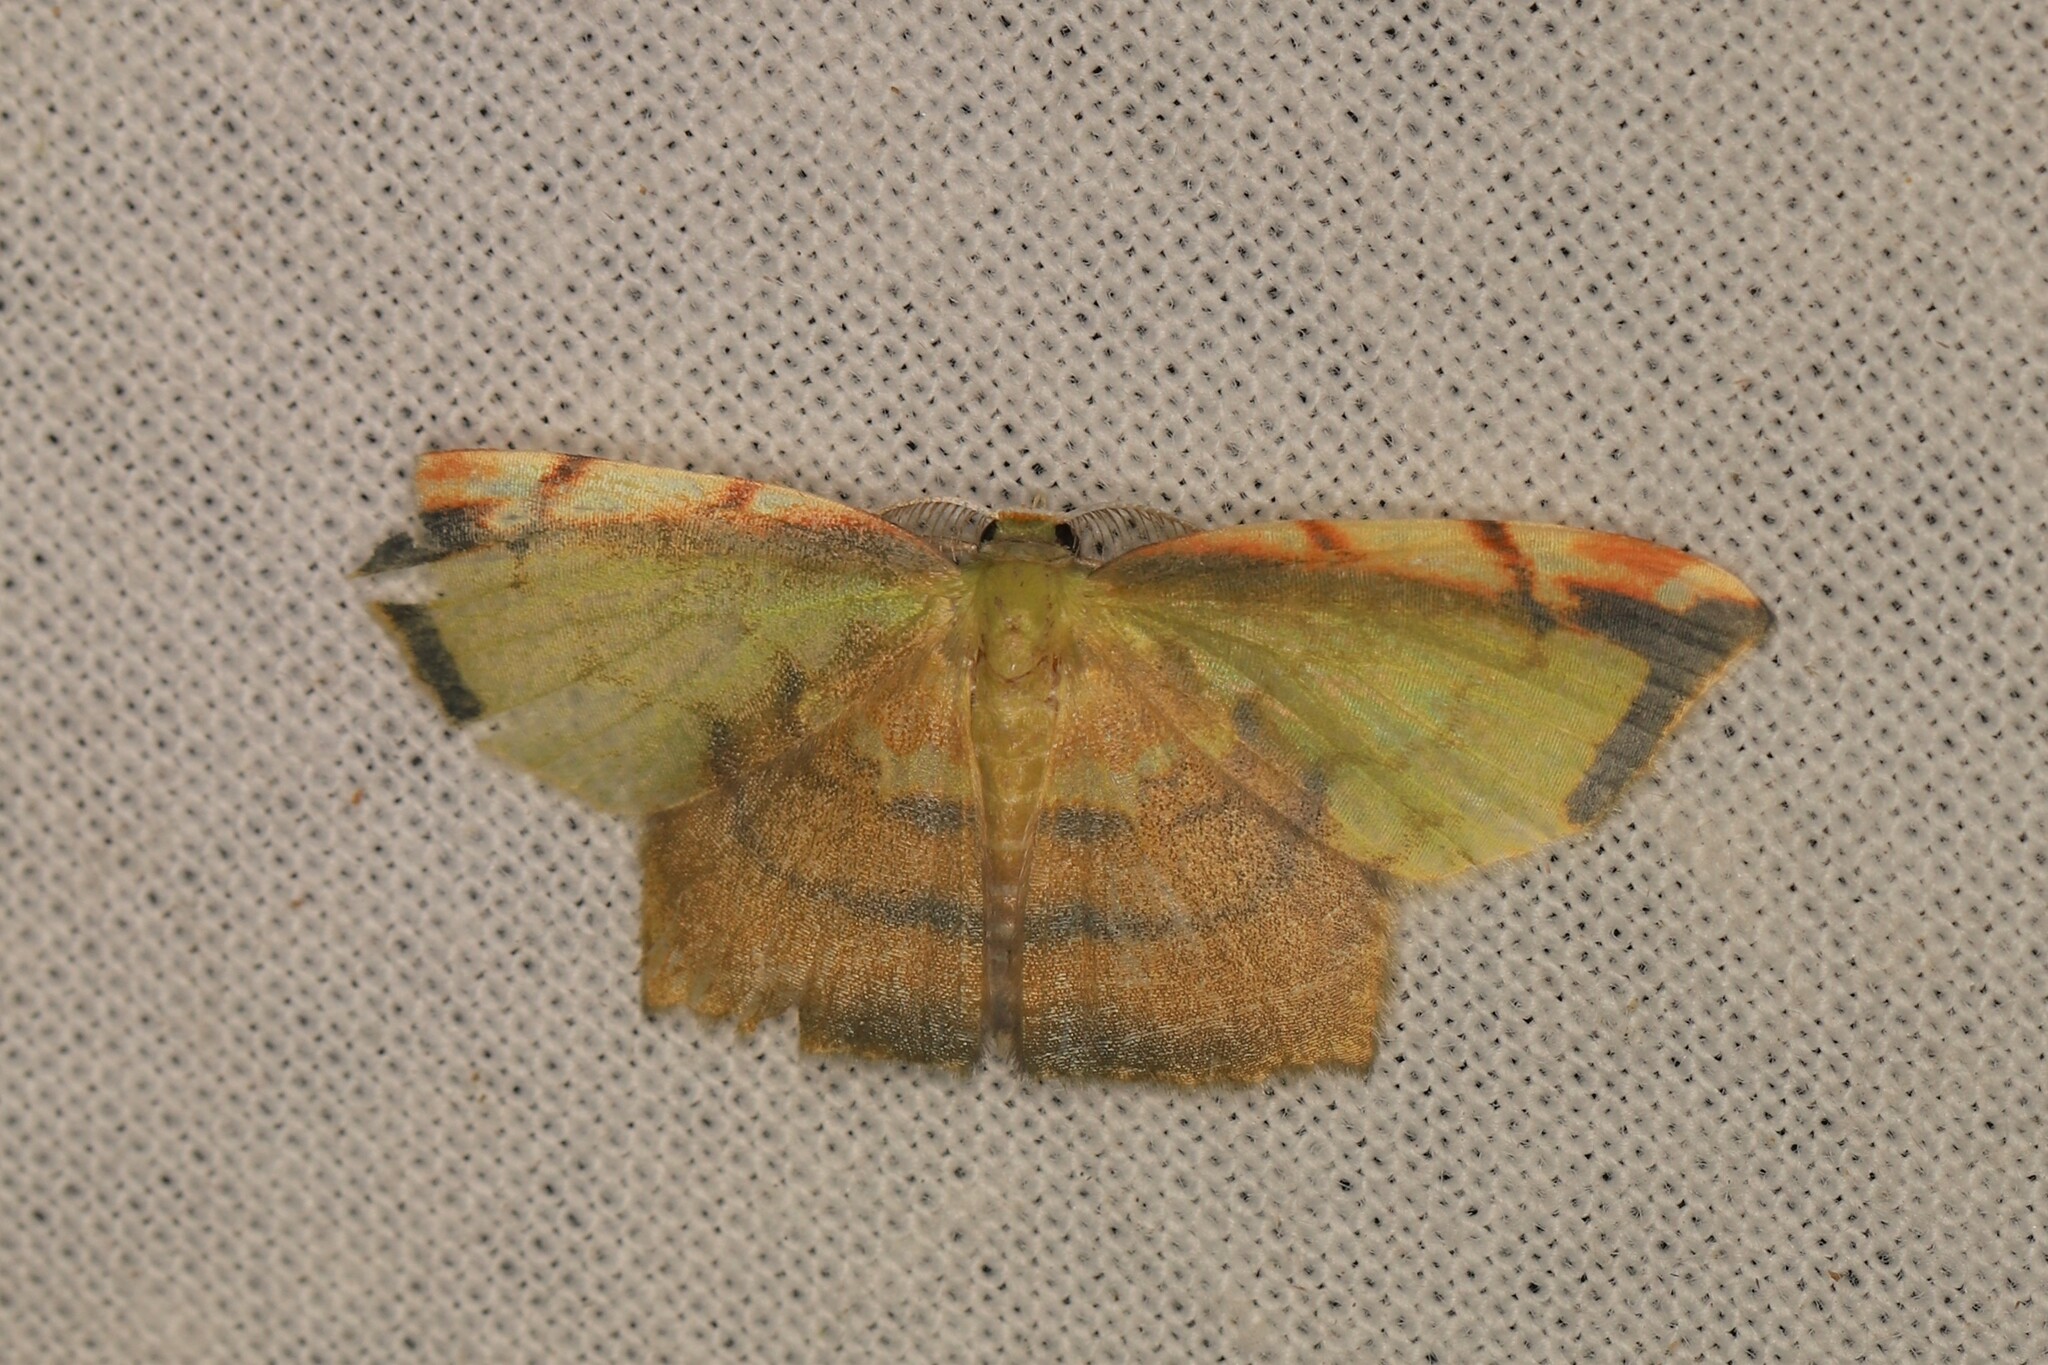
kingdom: Animalia
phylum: Arthropoda
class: Insecta
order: Lepidoptera
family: Geometridae
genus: Hydata
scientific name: Hydata busa
